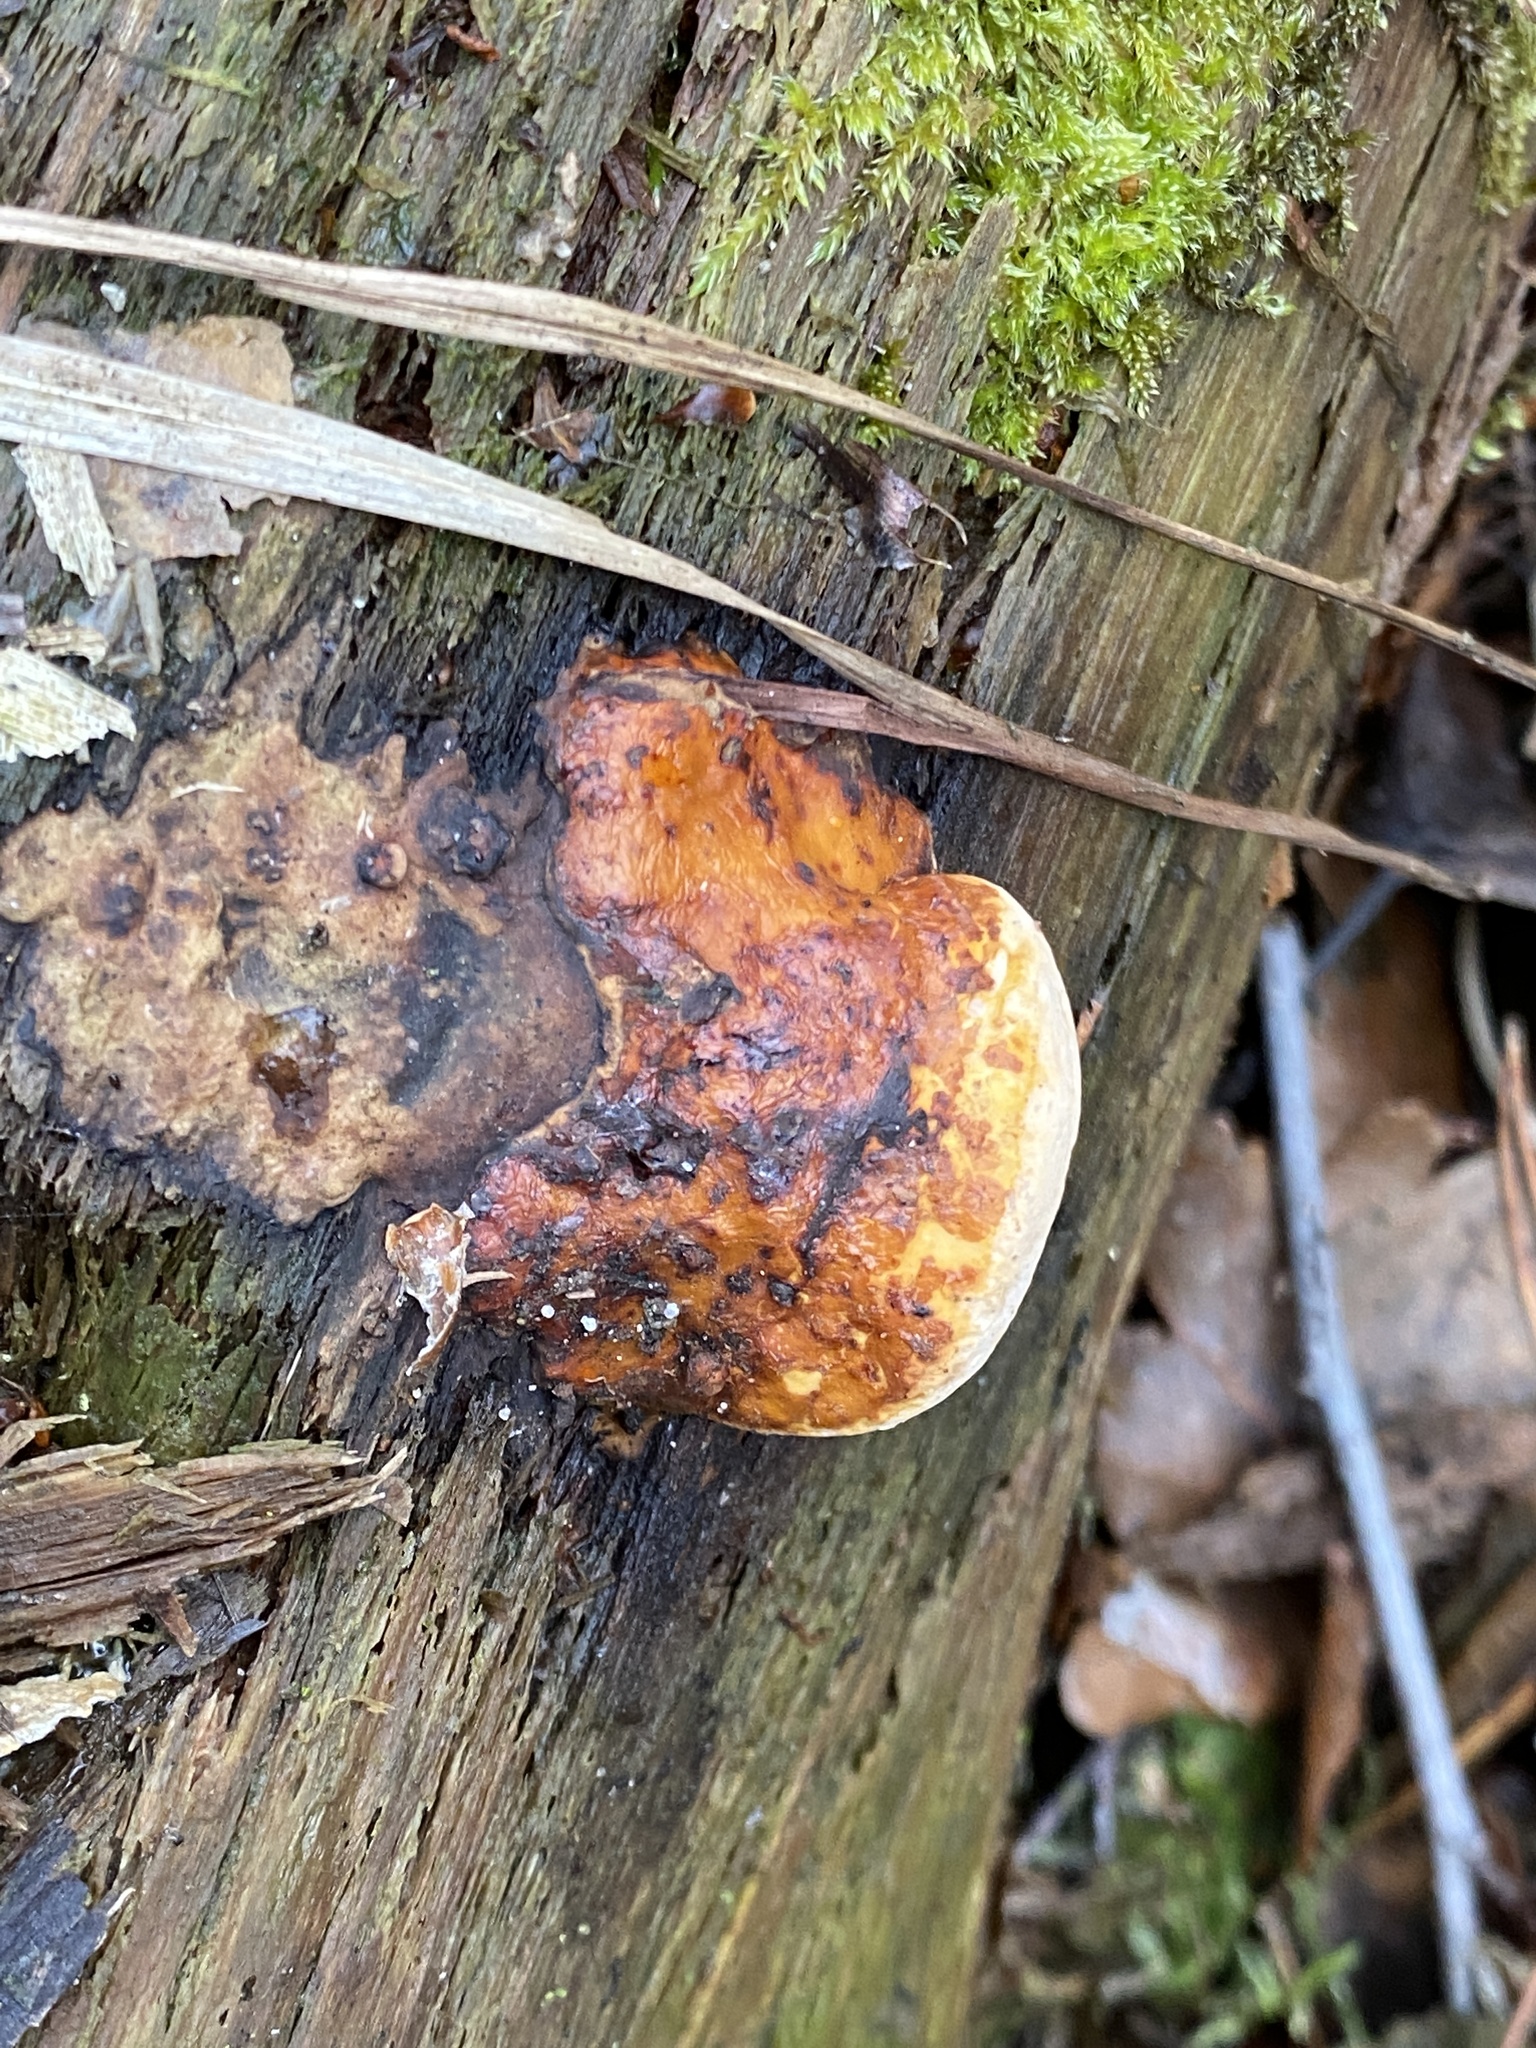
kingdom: Fungi
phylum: Basidiomycota
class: Agaricomycetes
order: Polyporales
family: Fomitopsidaceae
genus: Fomitopsis
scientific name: Fomitopsis pinicola
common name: Red-belted bracket
